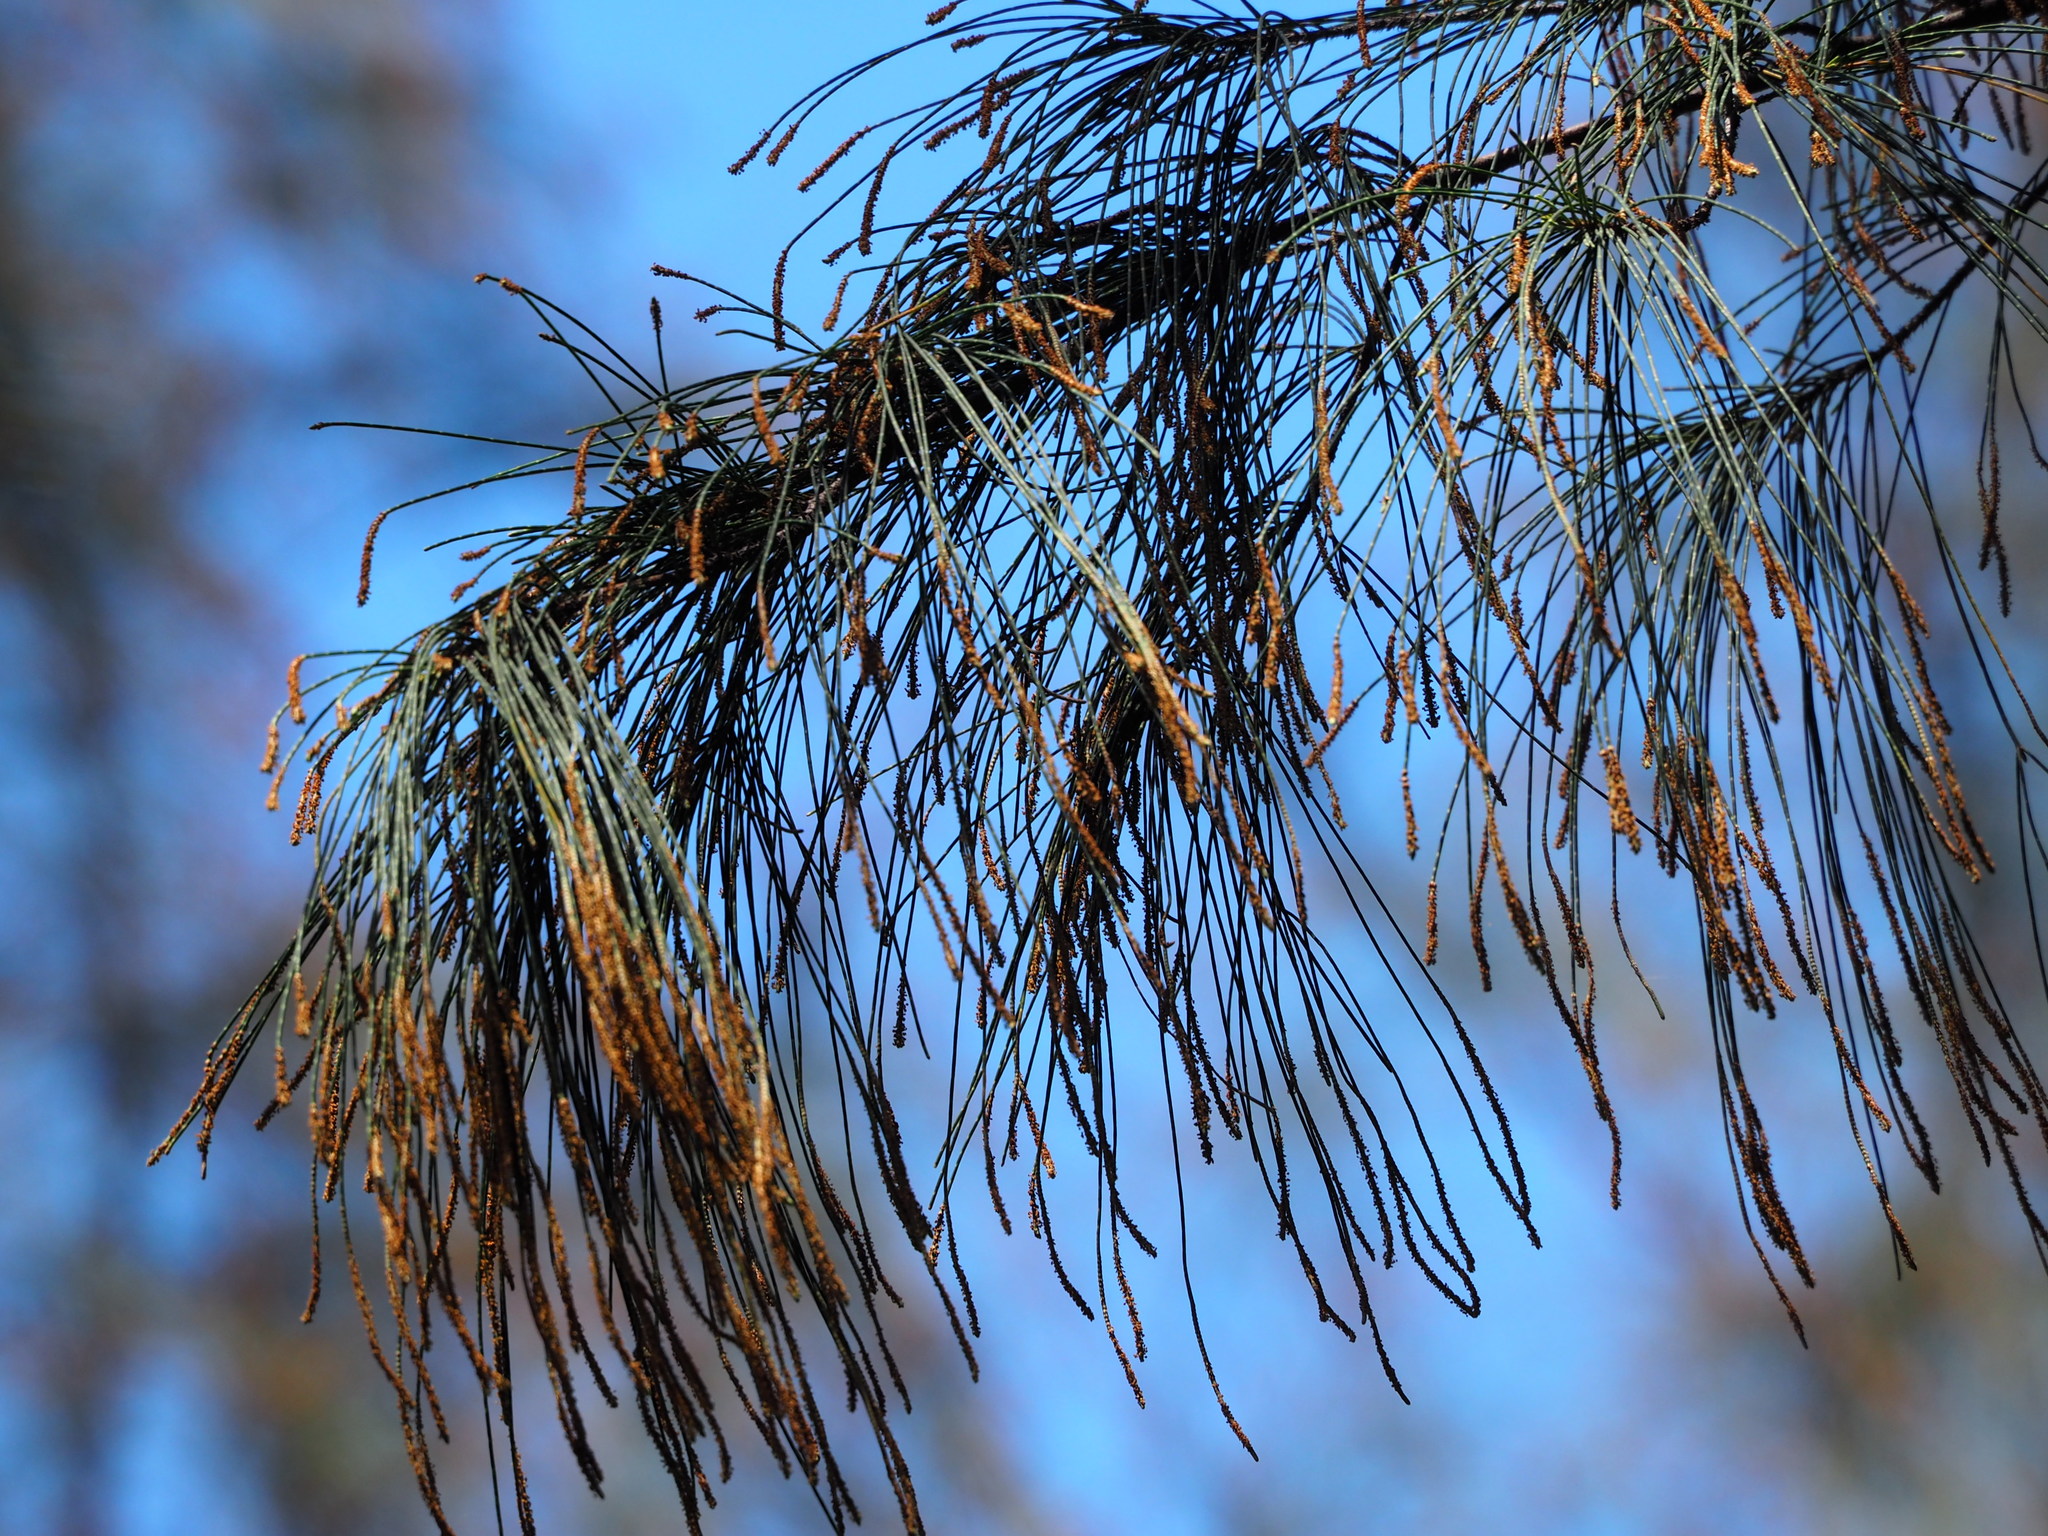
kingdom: Plantae
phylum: Tracheophyta
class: Magnoliopsida
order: Fagales
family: Casuarinaceae
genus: Casuarina
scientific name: Casuarina equisetifolia
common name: Beach sheoak
